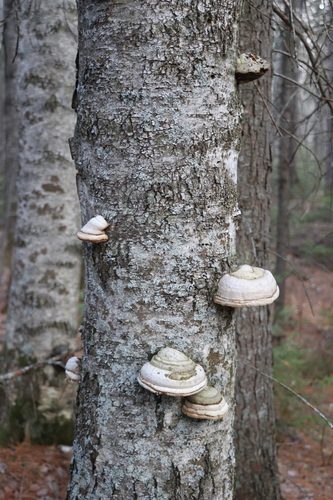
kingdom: Fungi
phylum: Basidiomycota
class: Agaricomycetes
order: Polyporales
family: Polyporaceae
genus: Fomes
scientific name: Fomes fomentarius
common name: Hoof fungus
